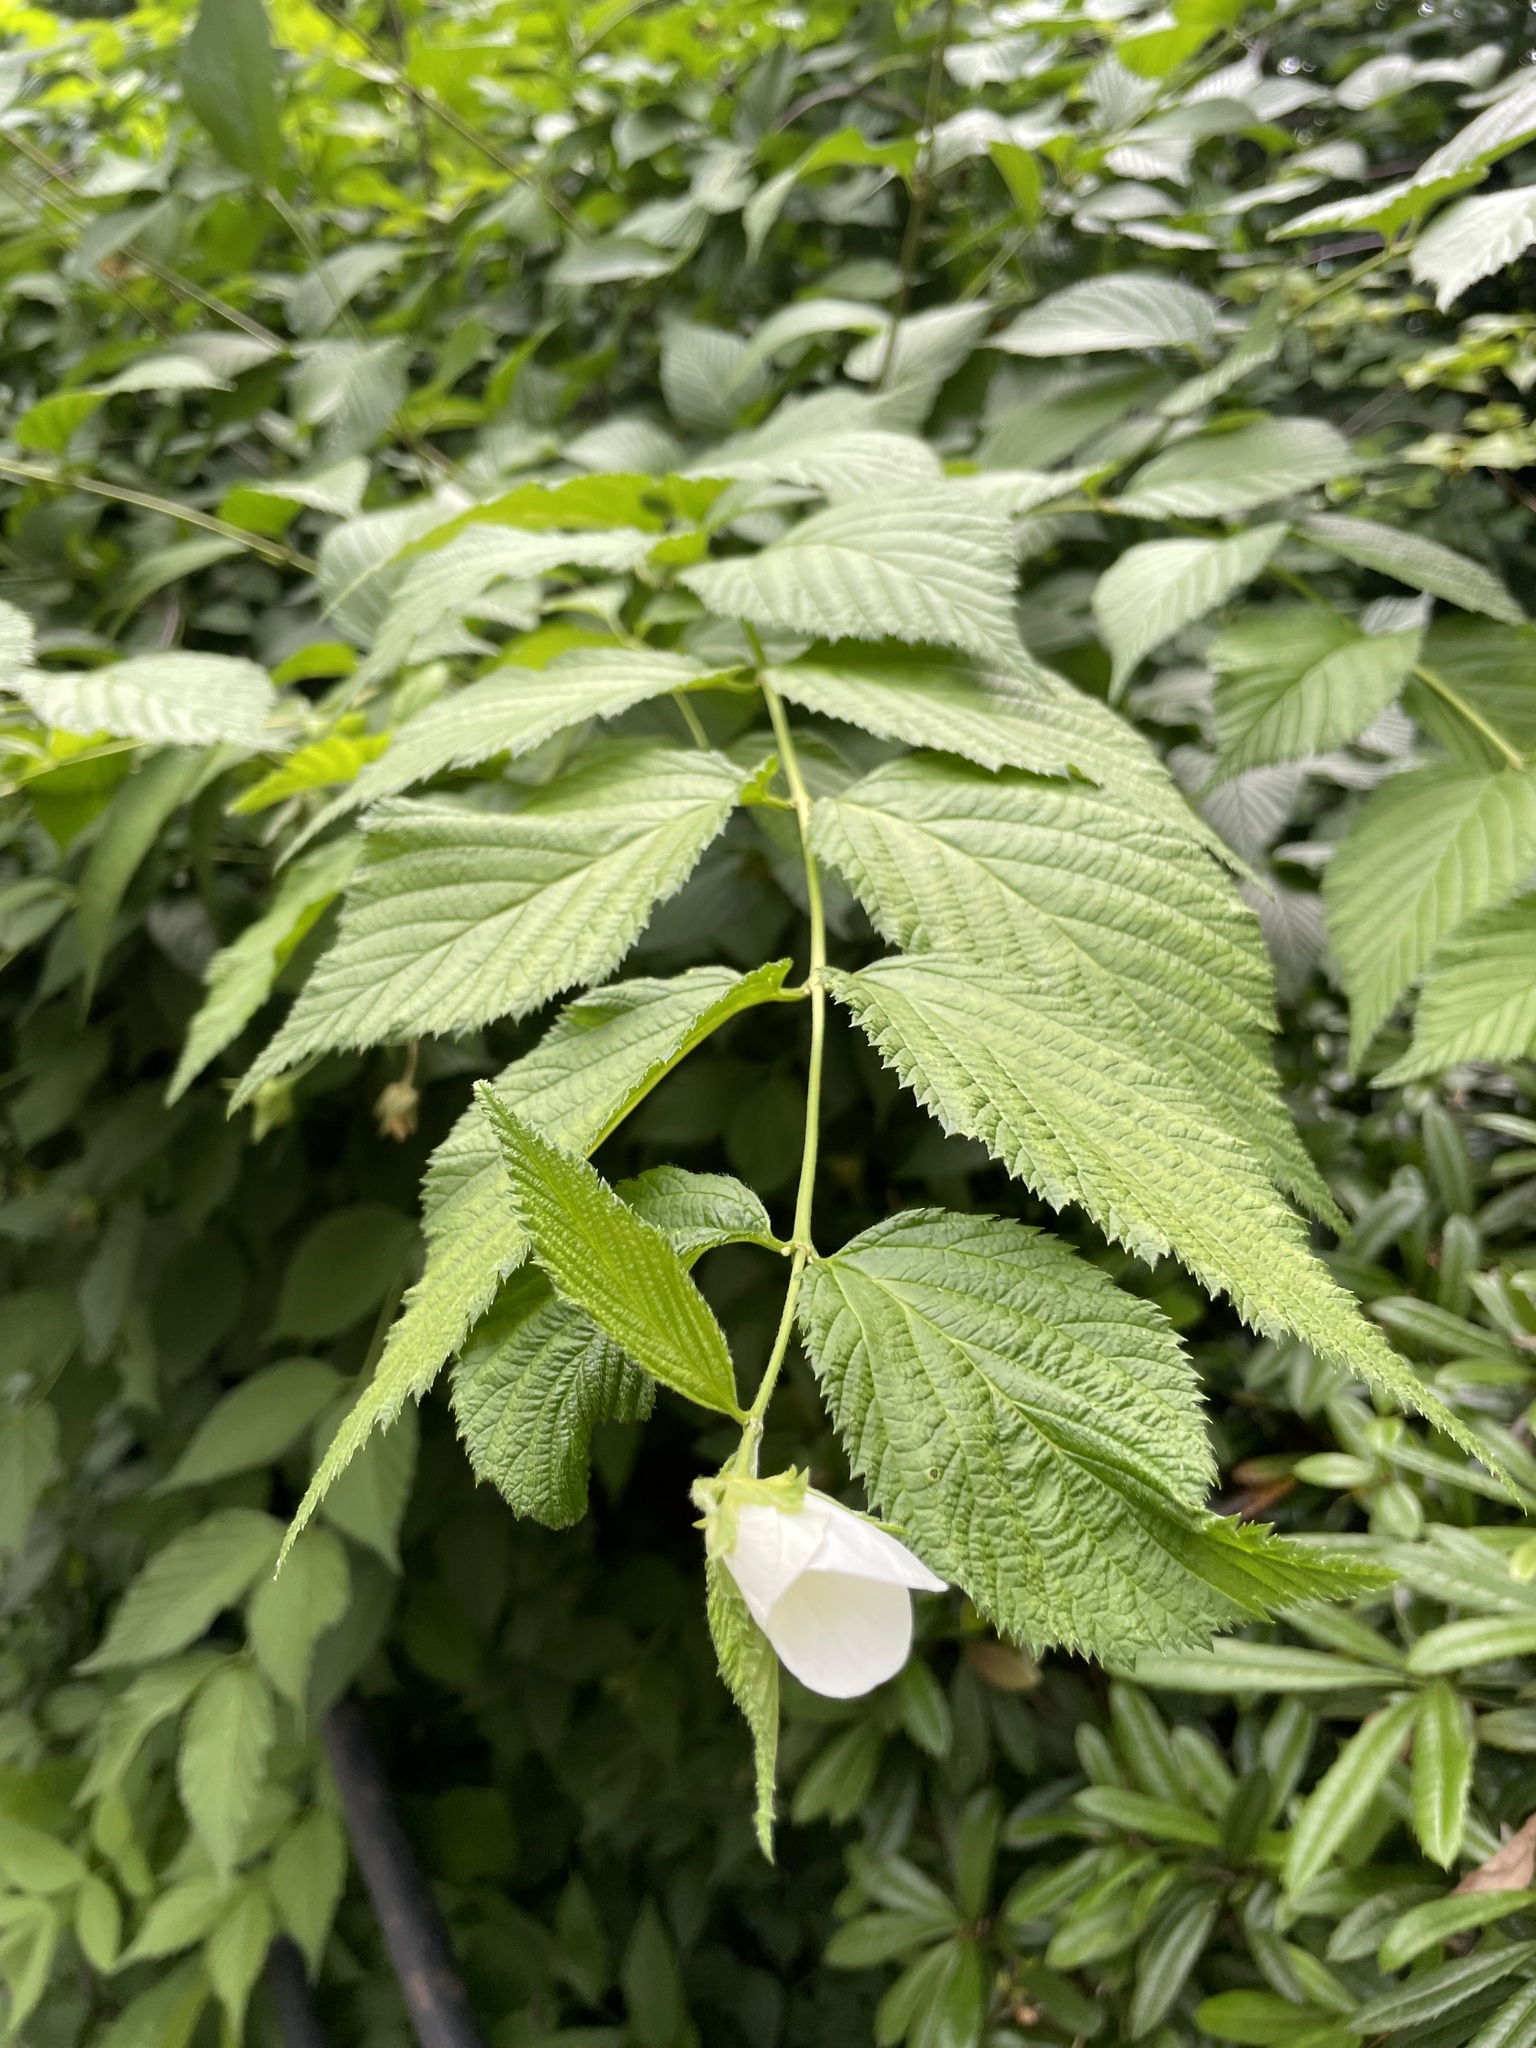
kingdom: Plantae
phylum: Tracheophyta
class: Magnoliopsida
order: Rosales
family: Rosaceae
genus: Rhodotypos
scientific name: Rhodotypos scandens
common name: Jetbead
